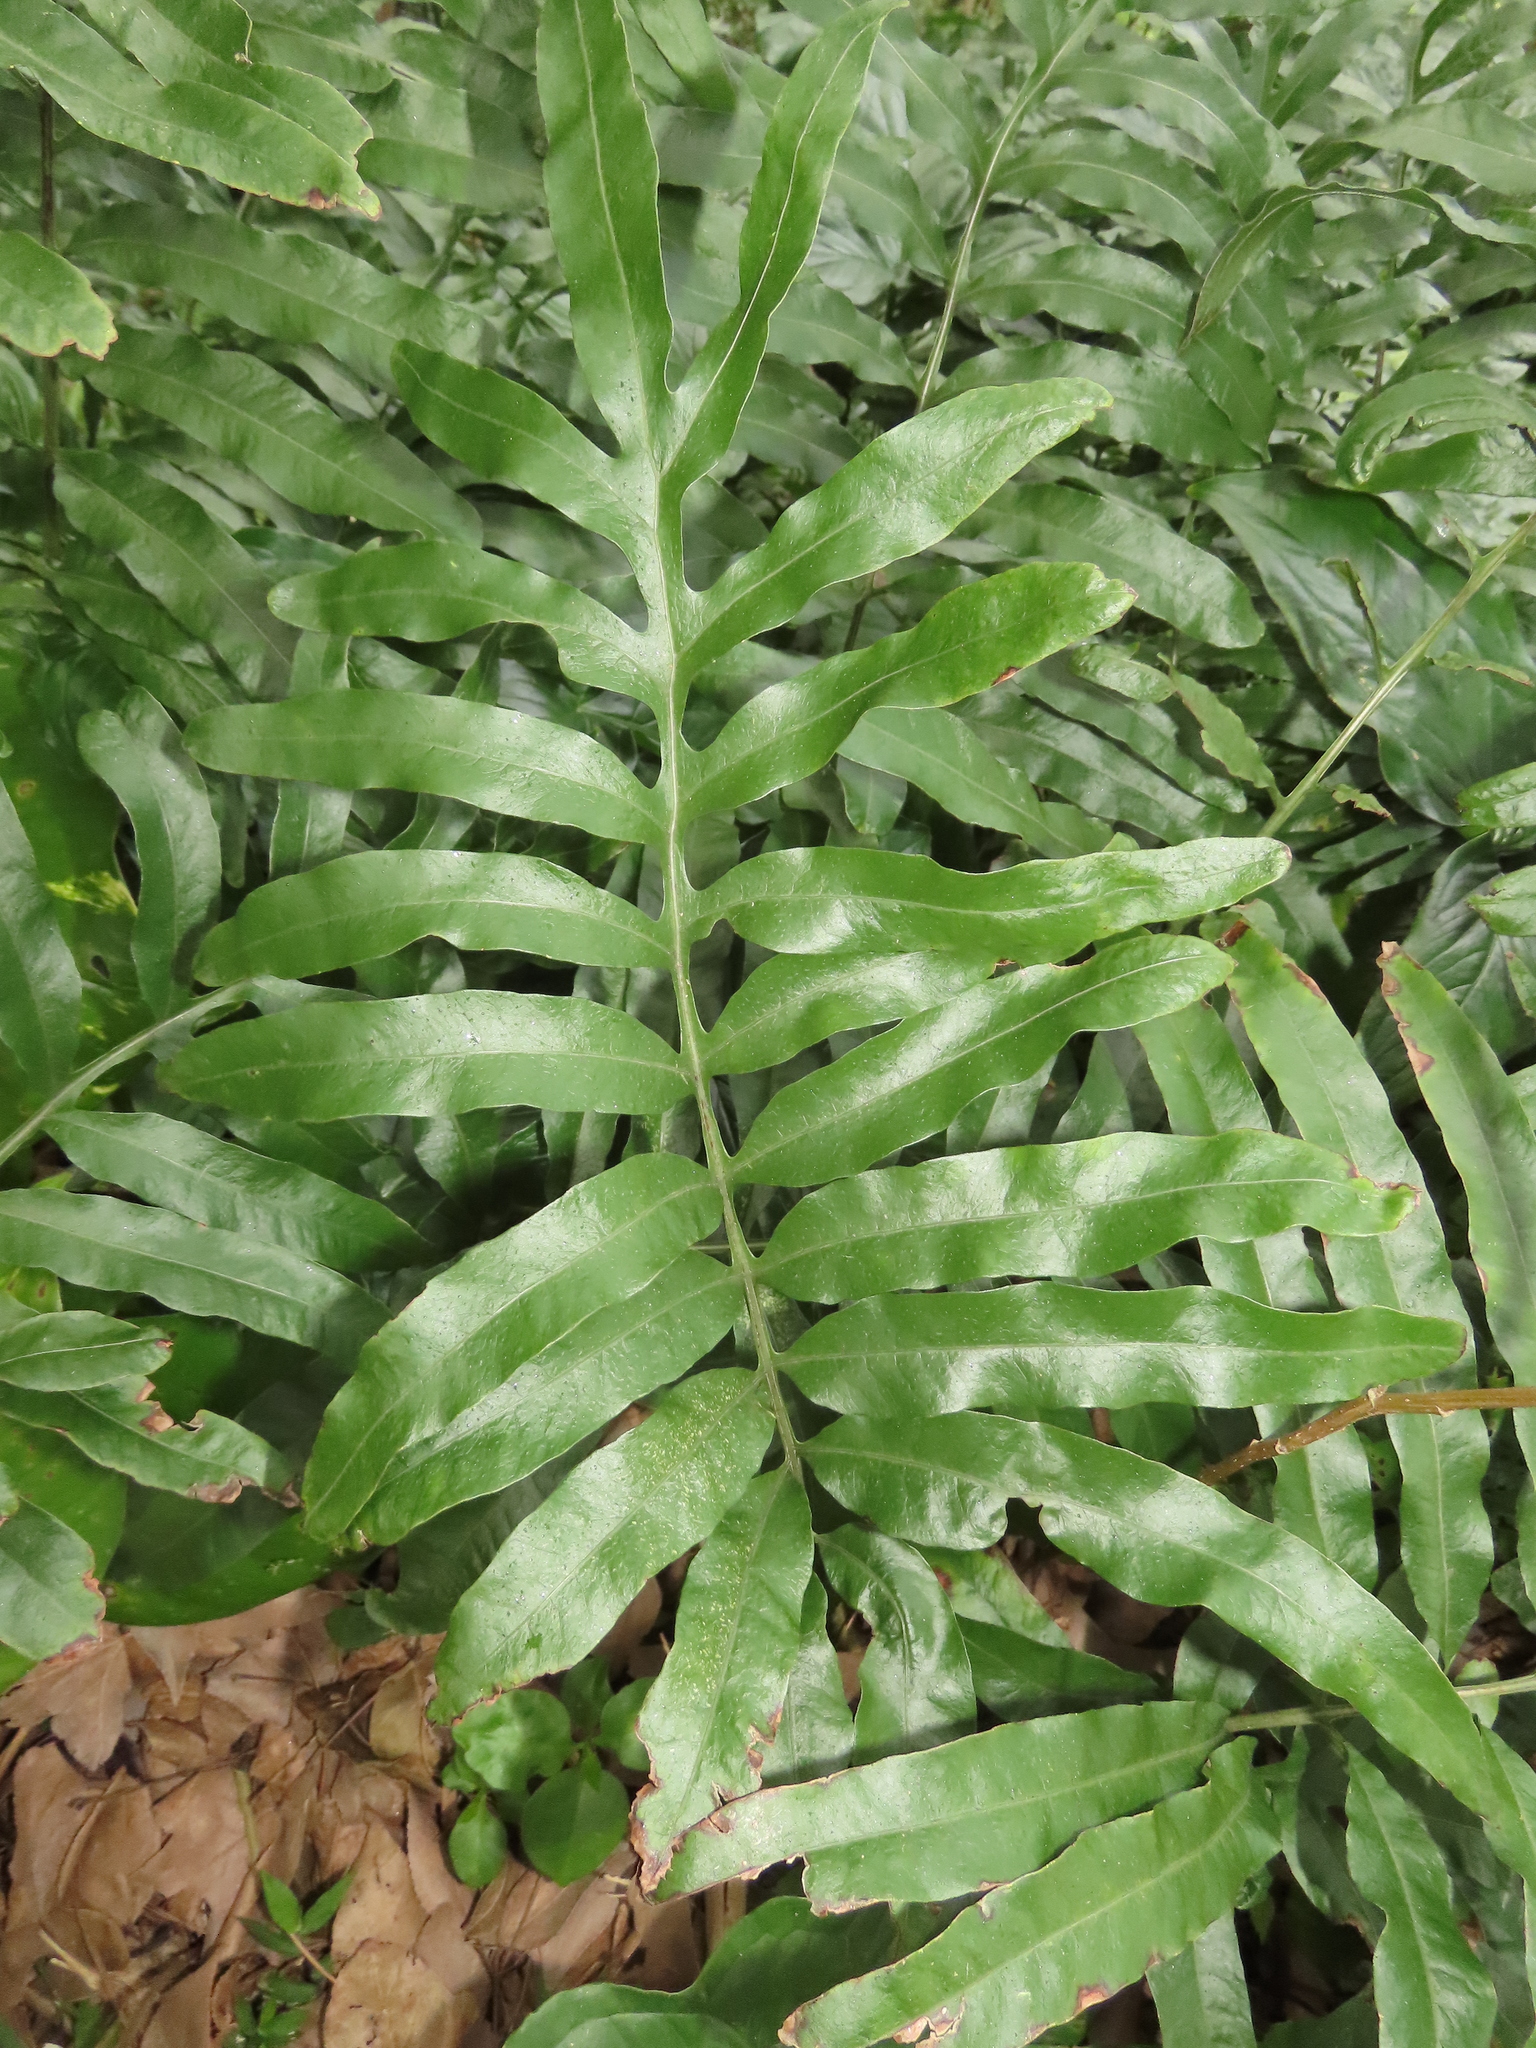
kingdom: Plantae
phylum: Tracheophyta
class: Polypodiopsida
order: Polypodiales
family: Polypodiaceae
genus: Leptochilus
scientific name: Leptochilus ellipticus
